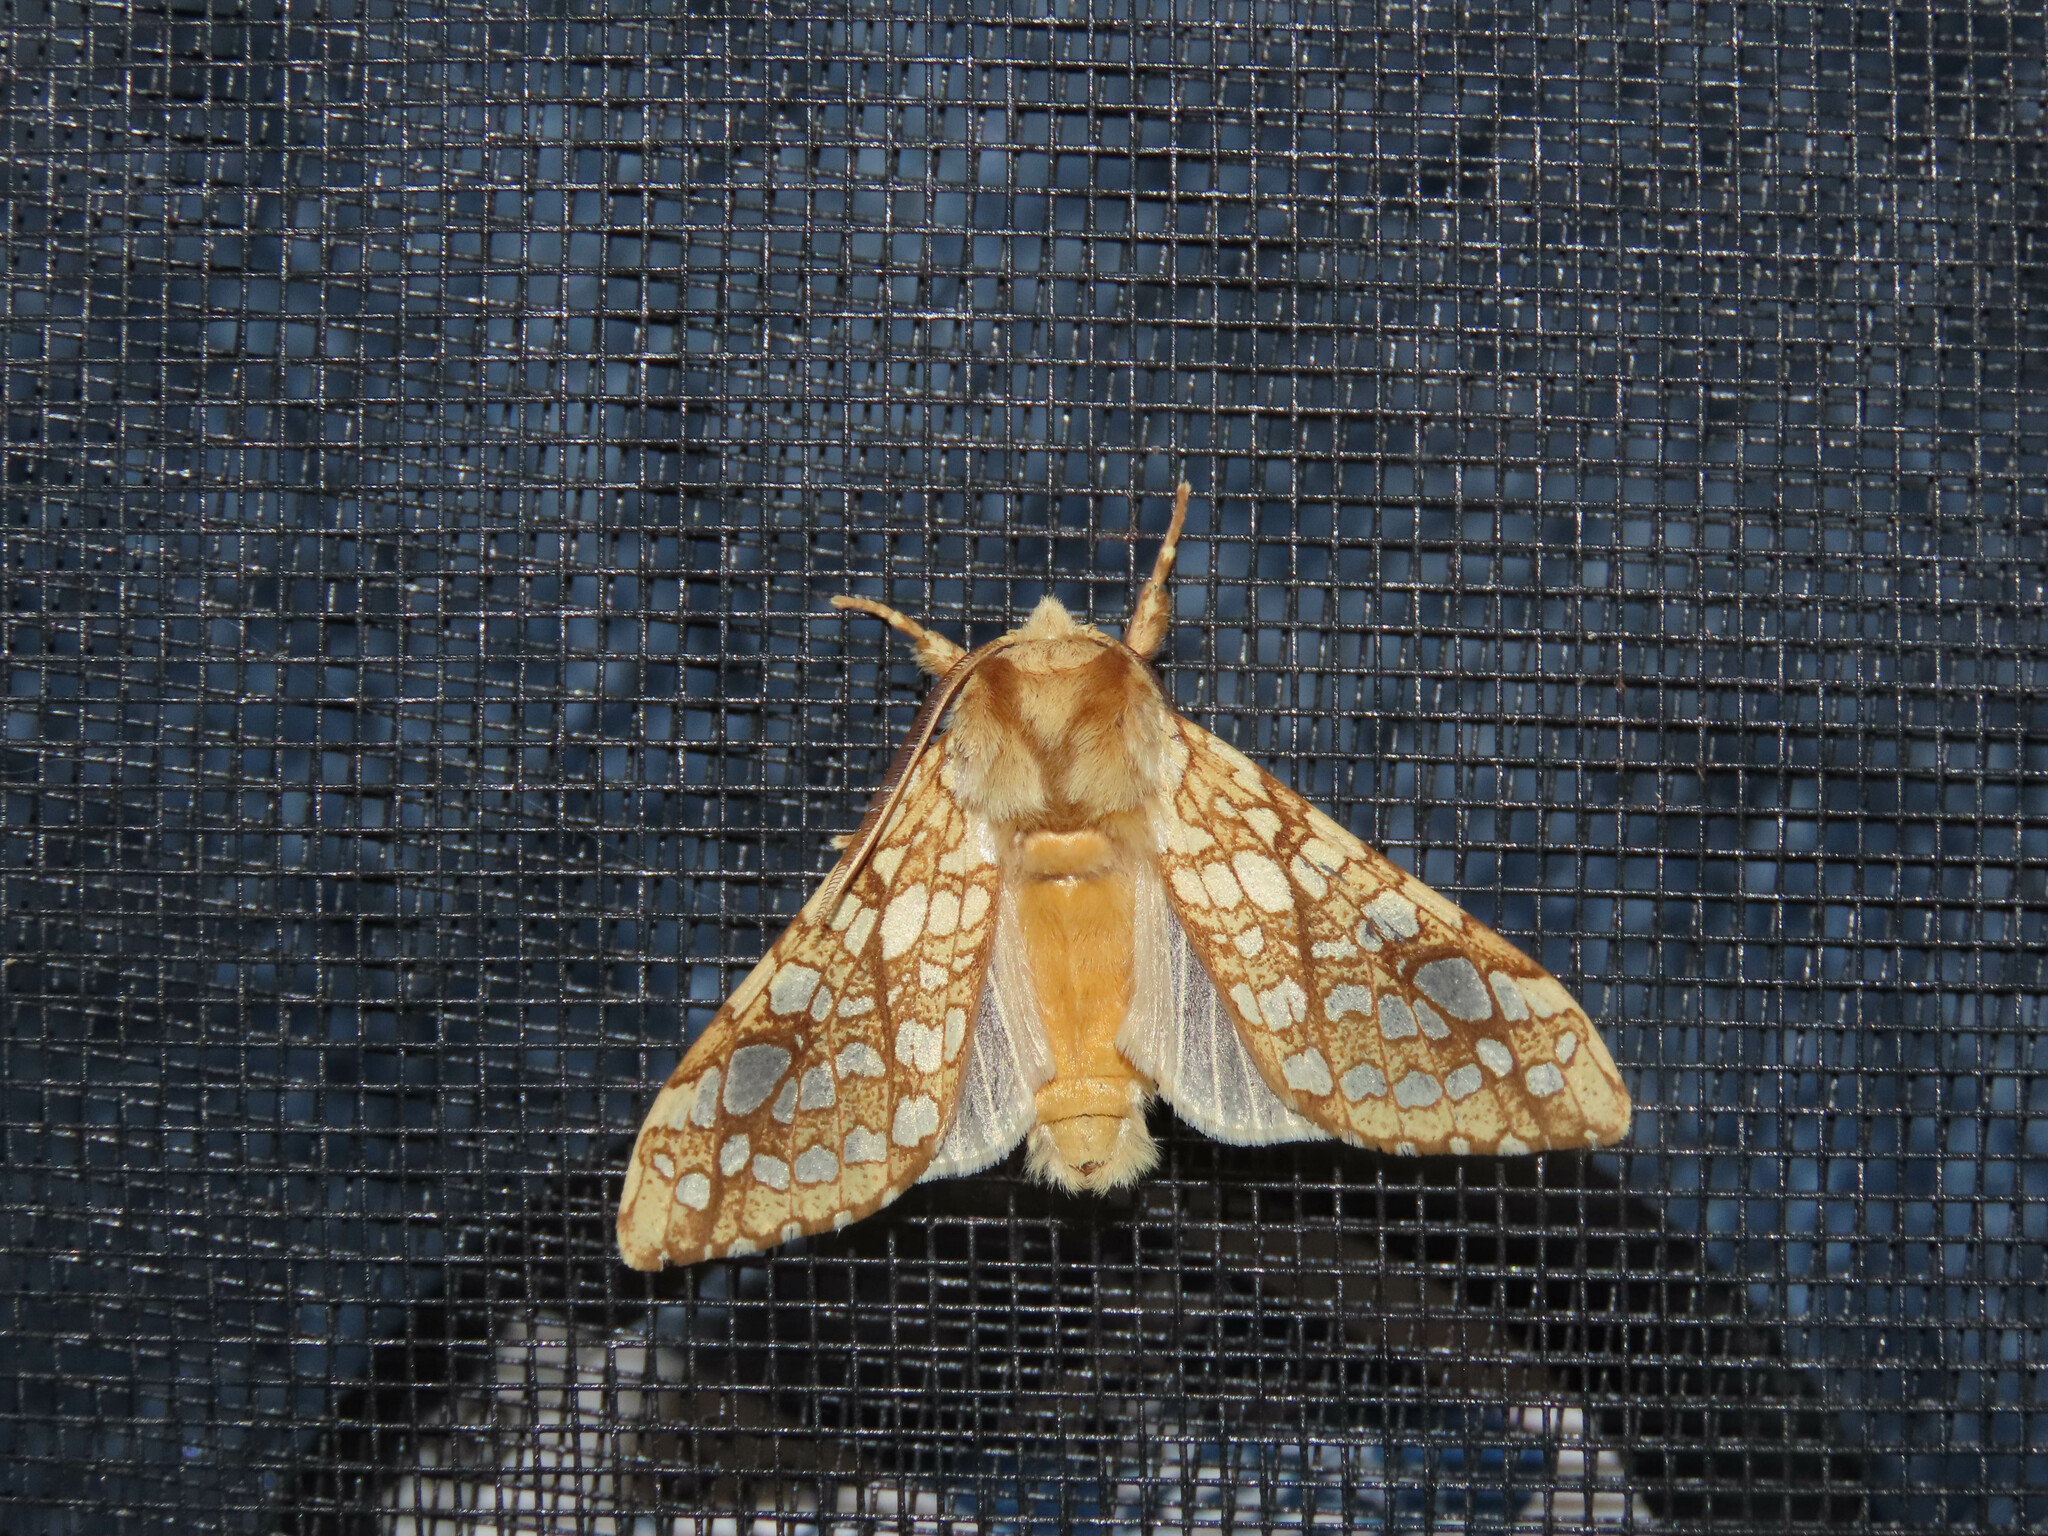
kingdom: Animalia
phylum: Arthropoda
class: Insecta
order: Lepidoptera
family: Erebidae
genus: Lophocampa
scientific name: Lophocampa caryae
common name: Hickory tussock moth
